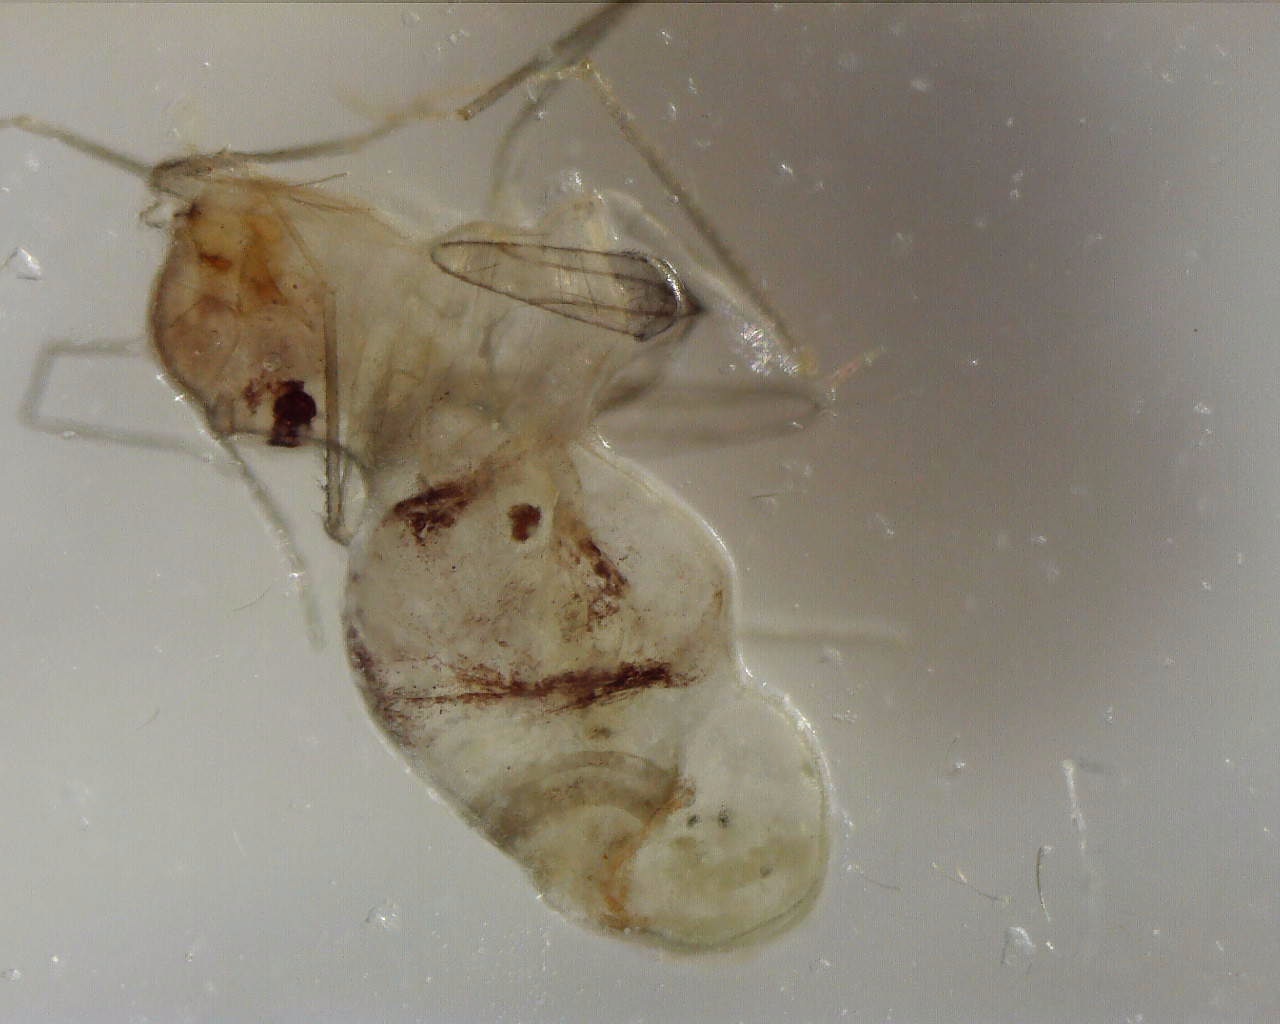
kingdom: Animalia
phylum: Arthropoda
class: Insecta
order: Psocodea
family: Psyllipsocidae
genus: Dorypteryx
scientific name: Dorypteryx domestica
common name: Cave barklouse
